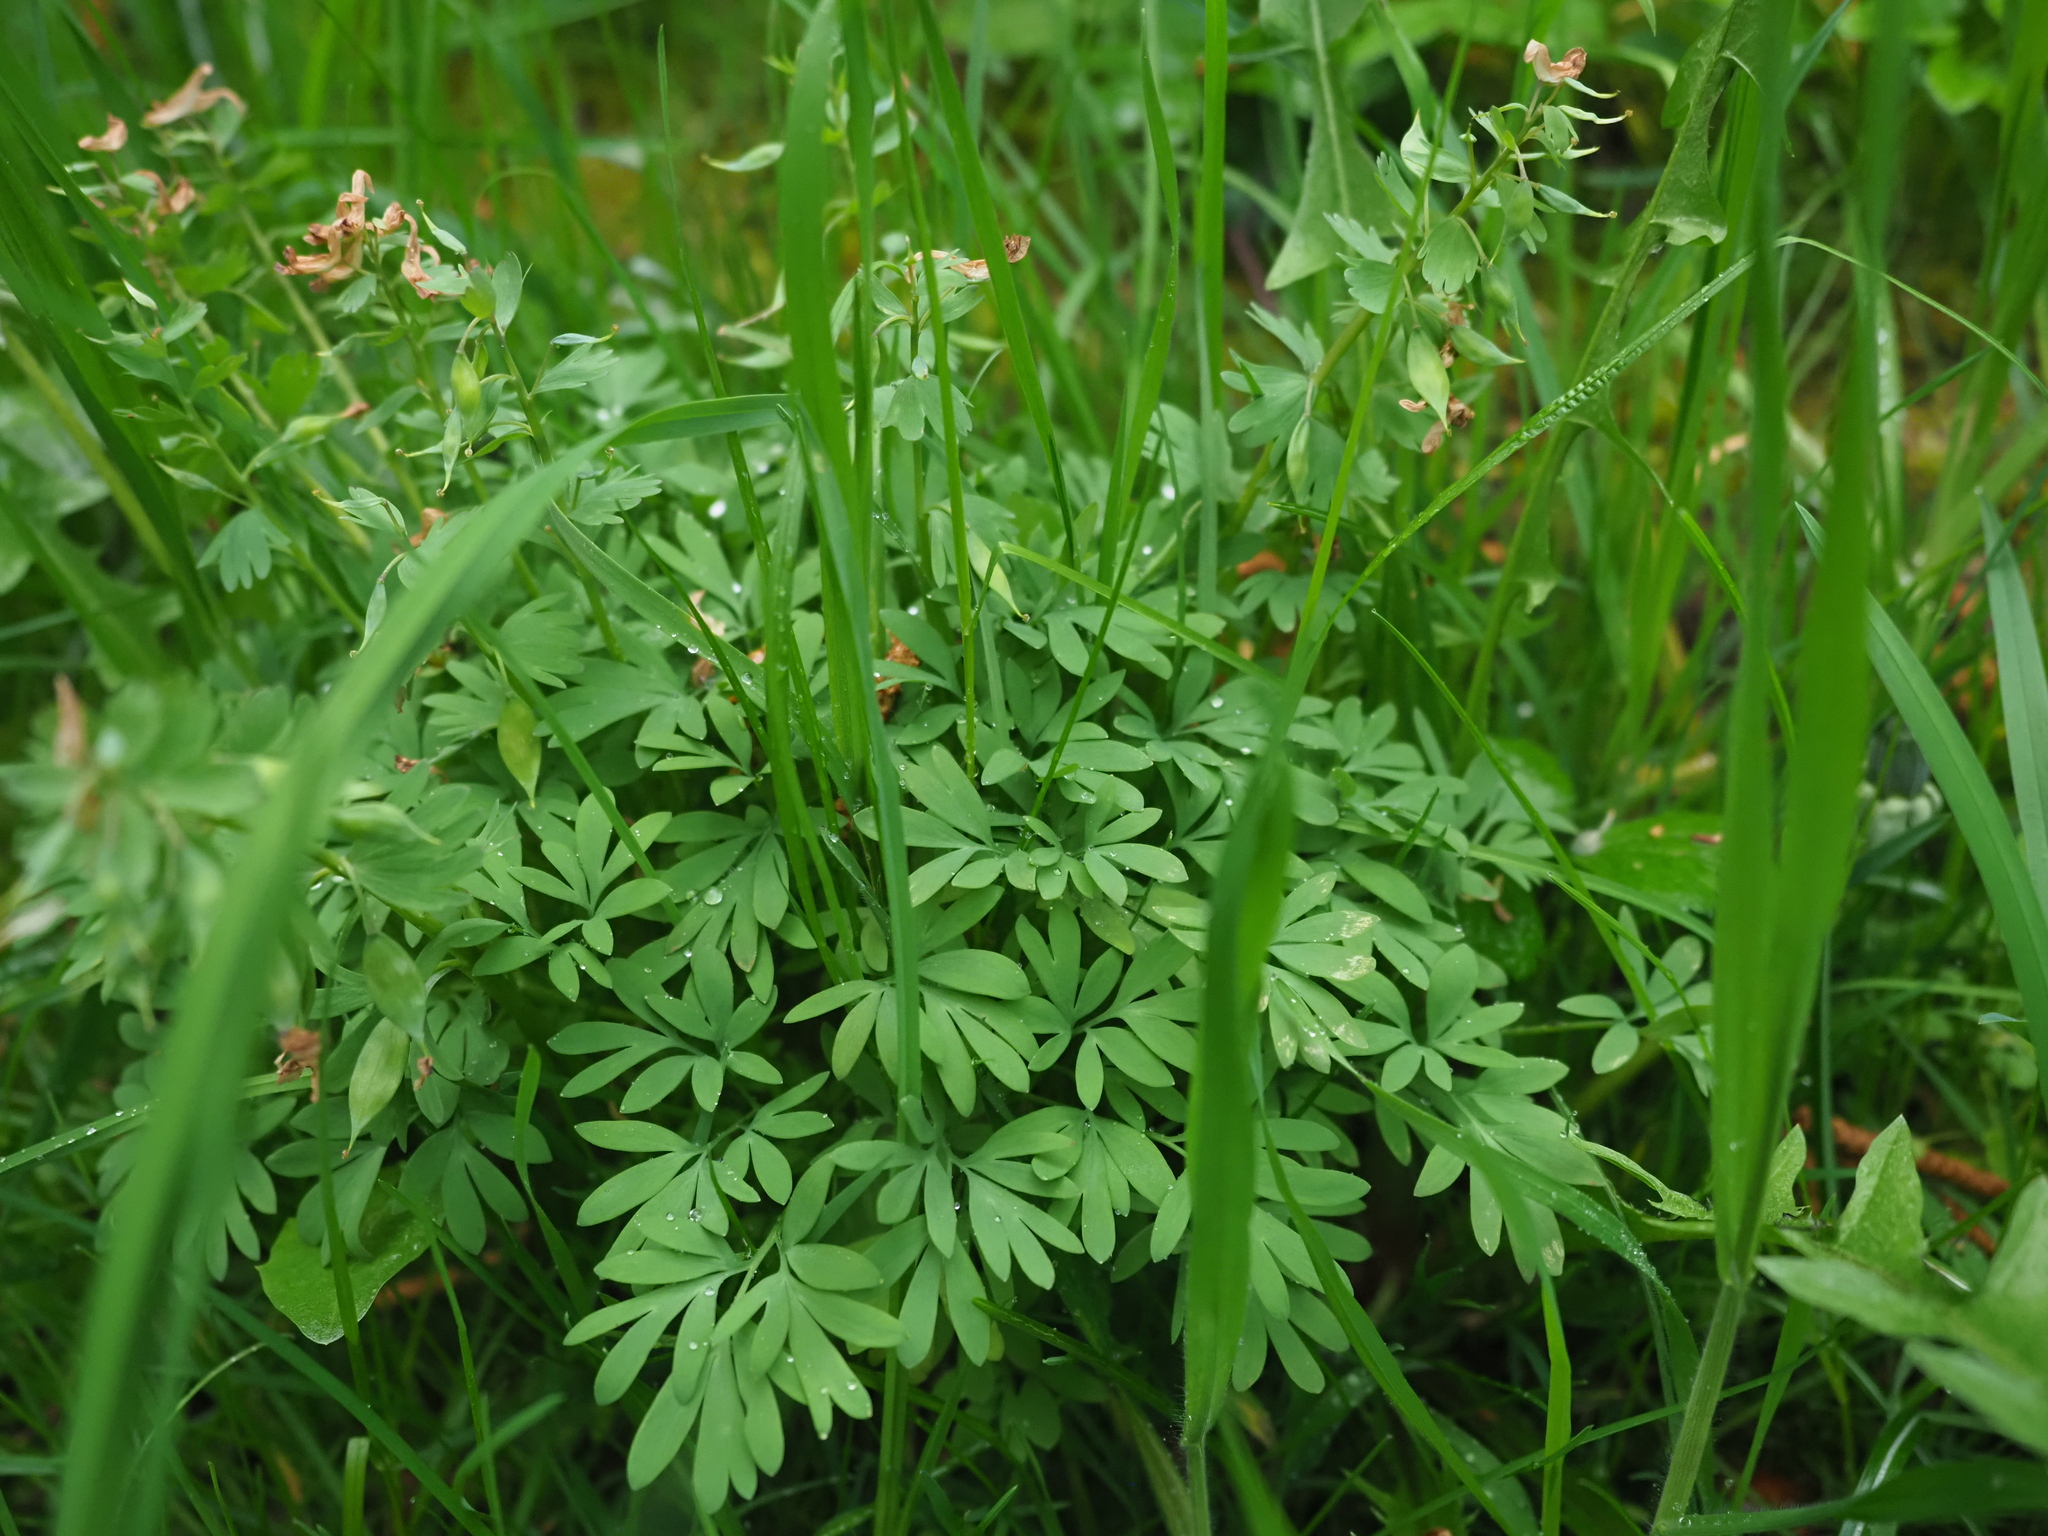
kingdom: Plantae
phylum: Tracheophyta
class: Magnoliopsida
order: Ranunculales
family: Papaveraceae
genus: Corydalis
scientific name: Corydalis solida
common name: Bird-in-a-bush
